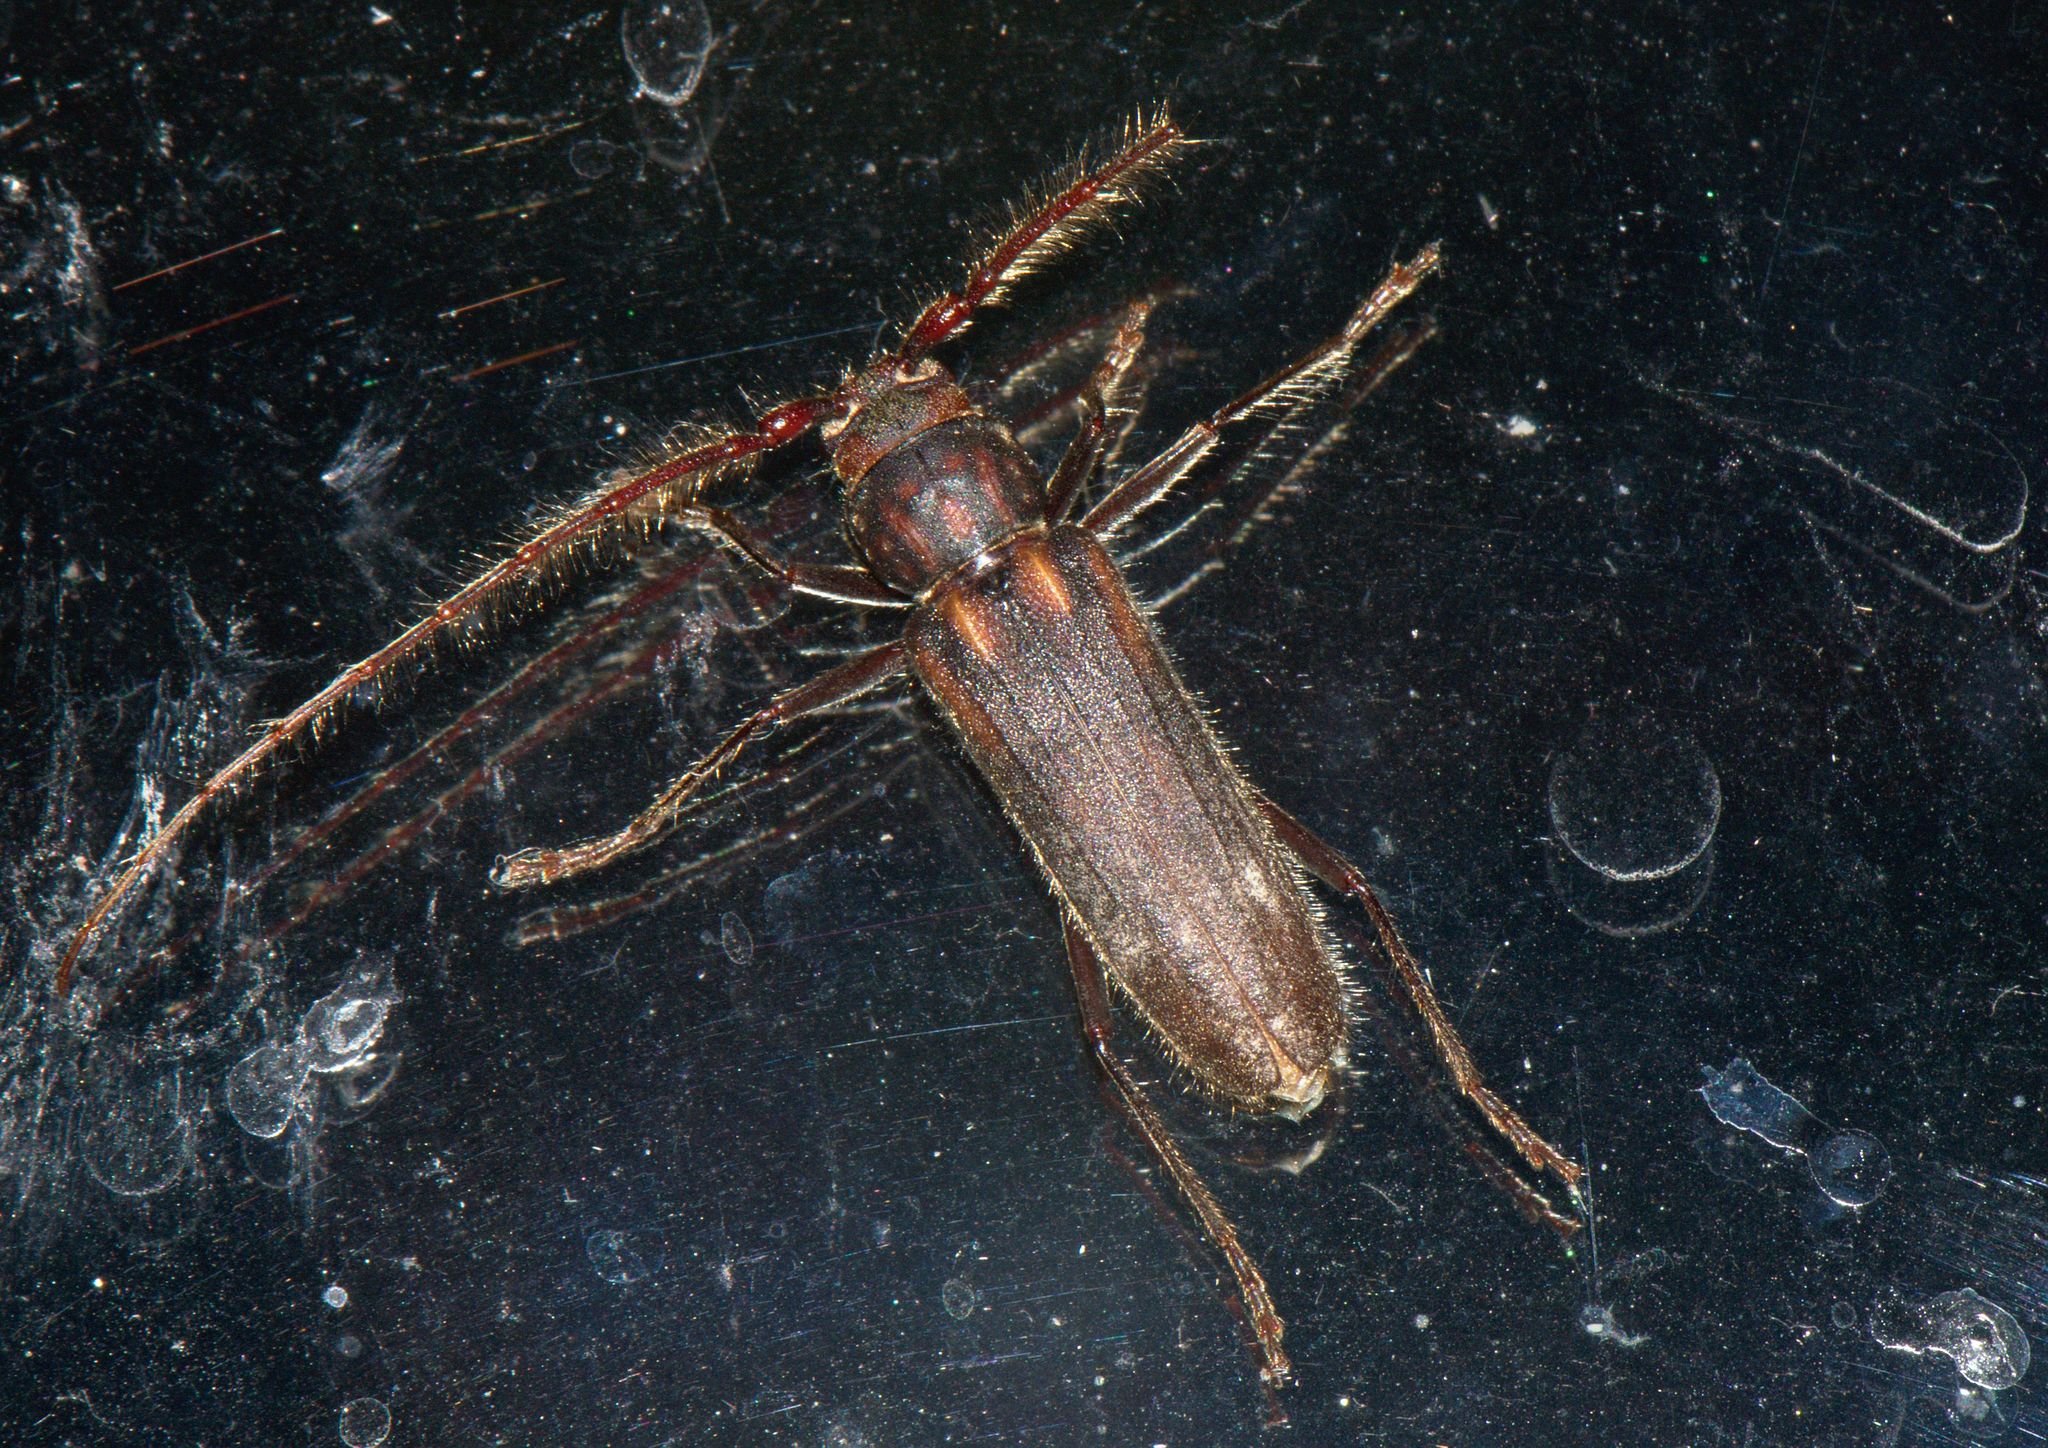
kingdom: Animalia
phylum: Arthropoda
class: Insecta
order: Coleoptera
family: Cerambycidae
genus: Stromatium
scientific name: Stromatium barbatum
